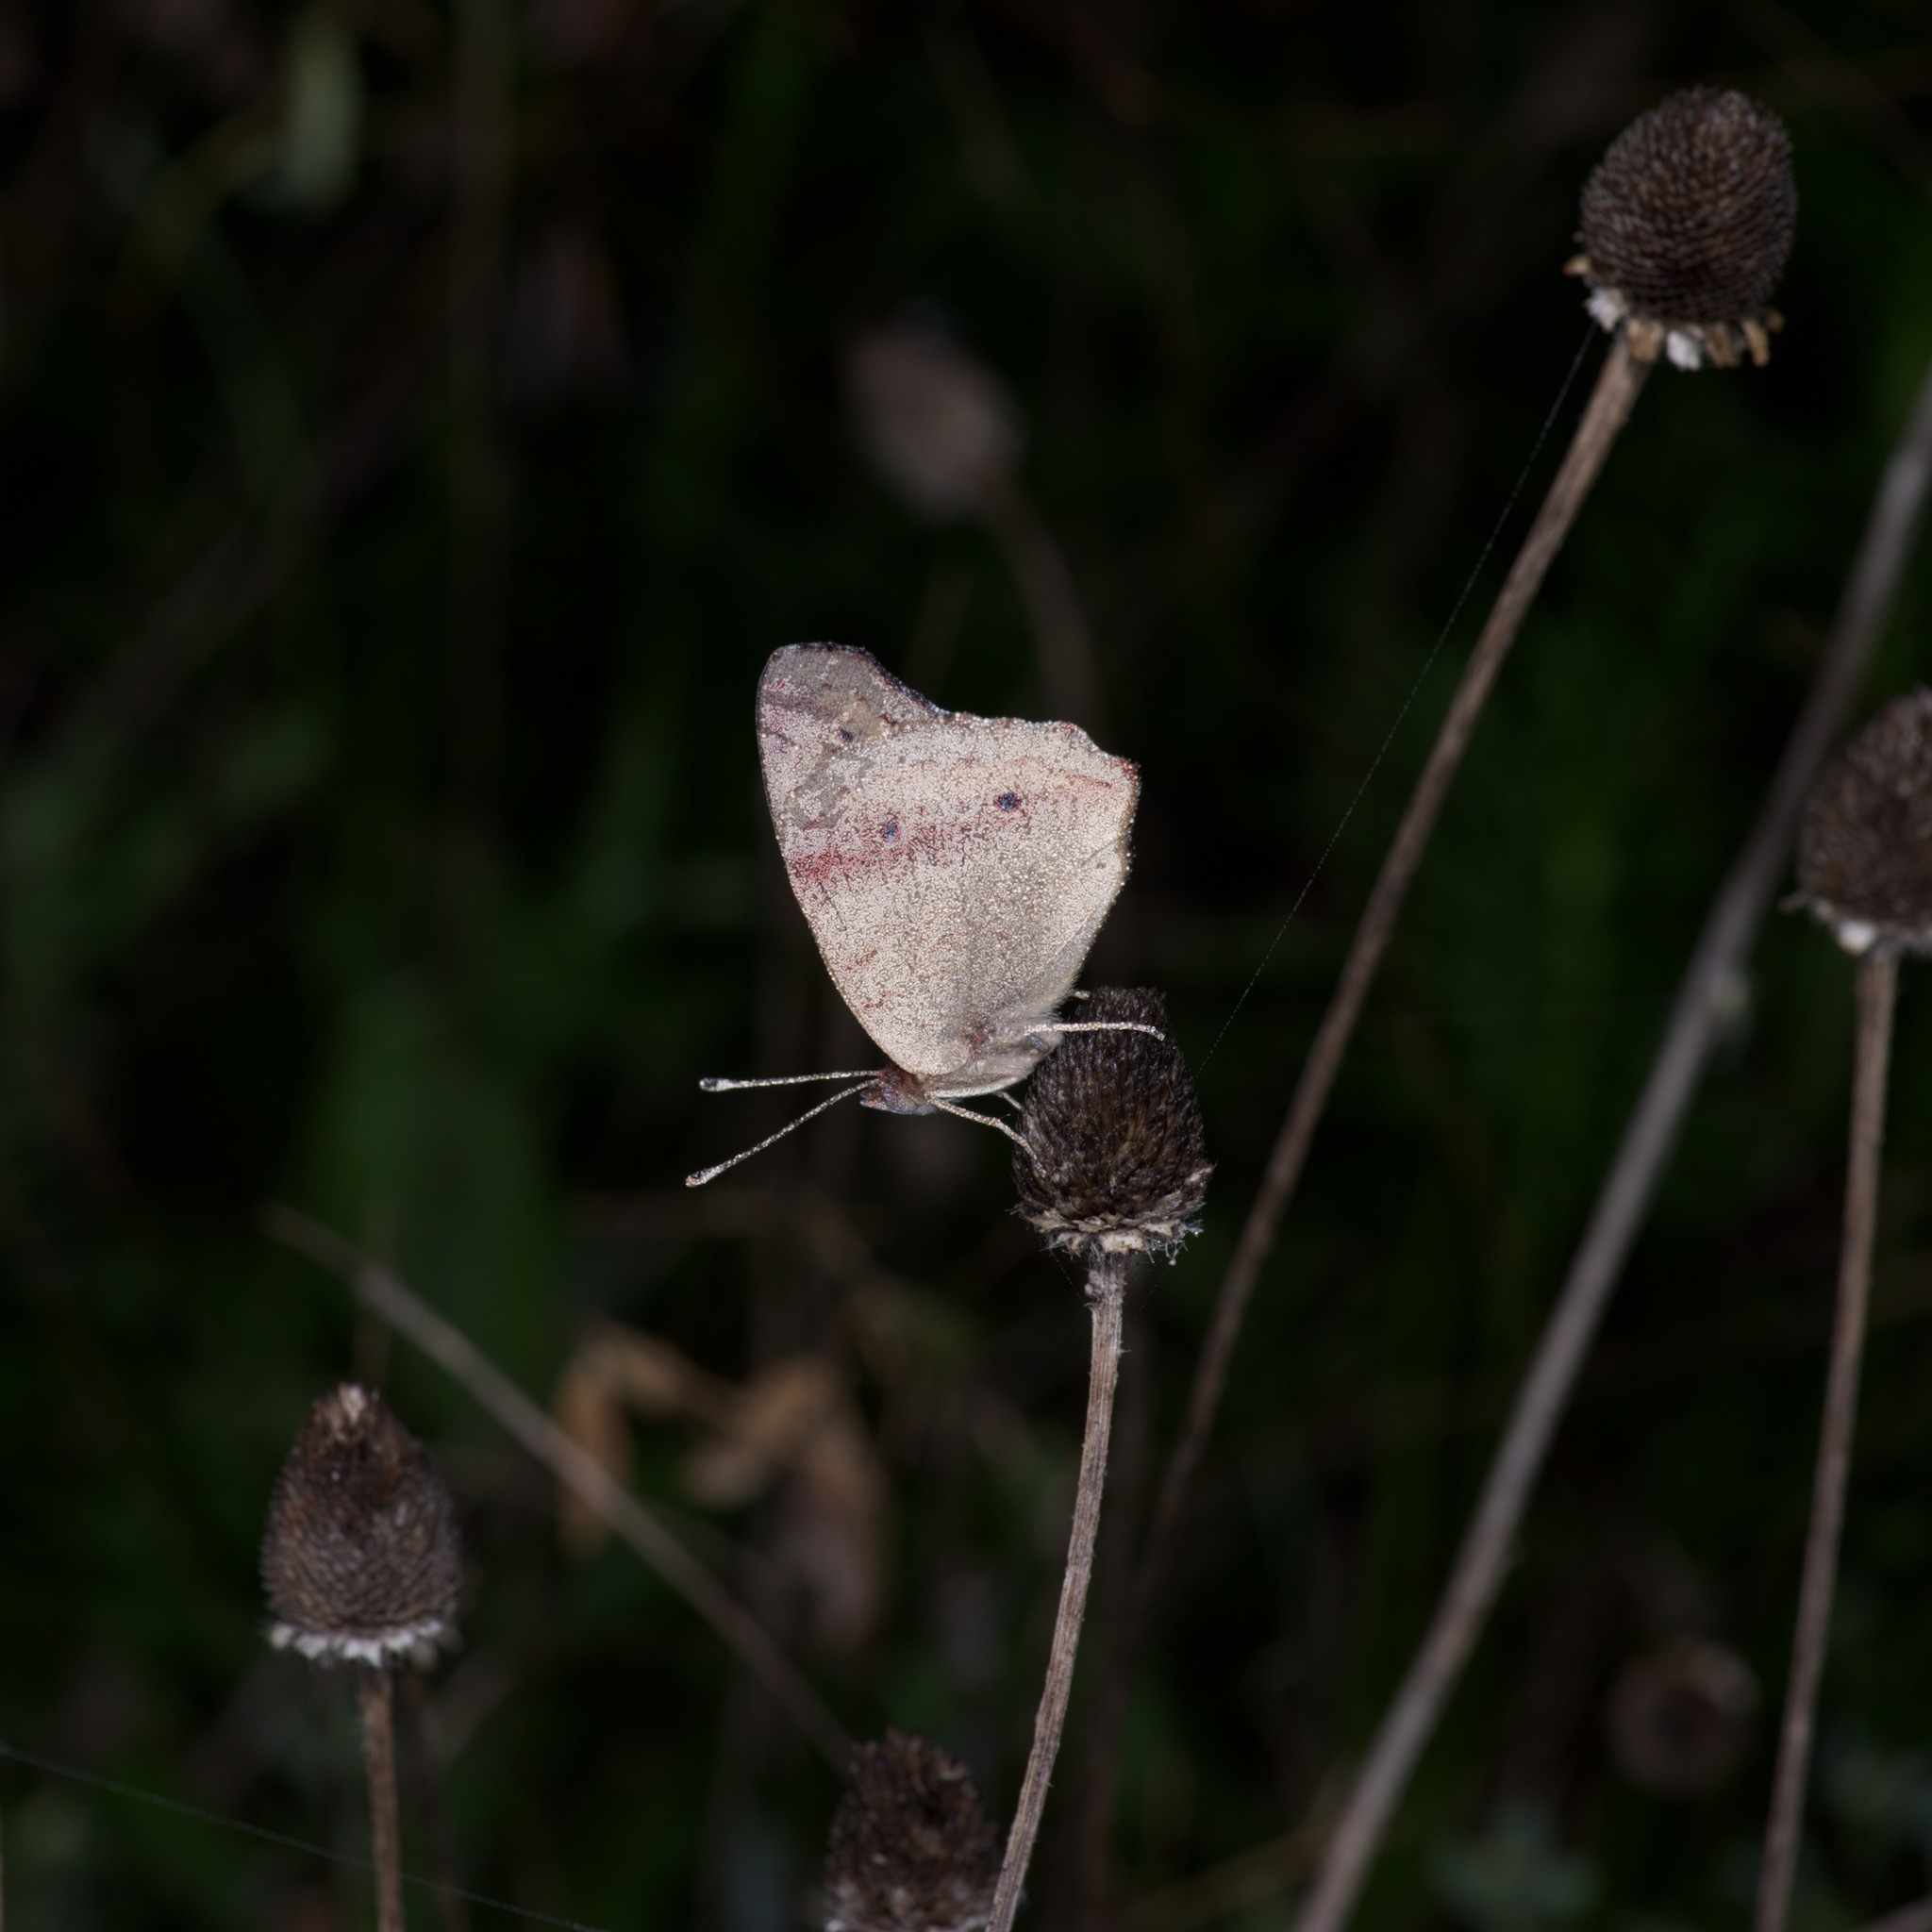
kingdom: Animalia
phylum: Arthropoda
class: Insecta
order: Lepidoptera
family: Nymphalidae
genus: Junonia
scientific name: Junonia coenia
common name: Common buckeye
